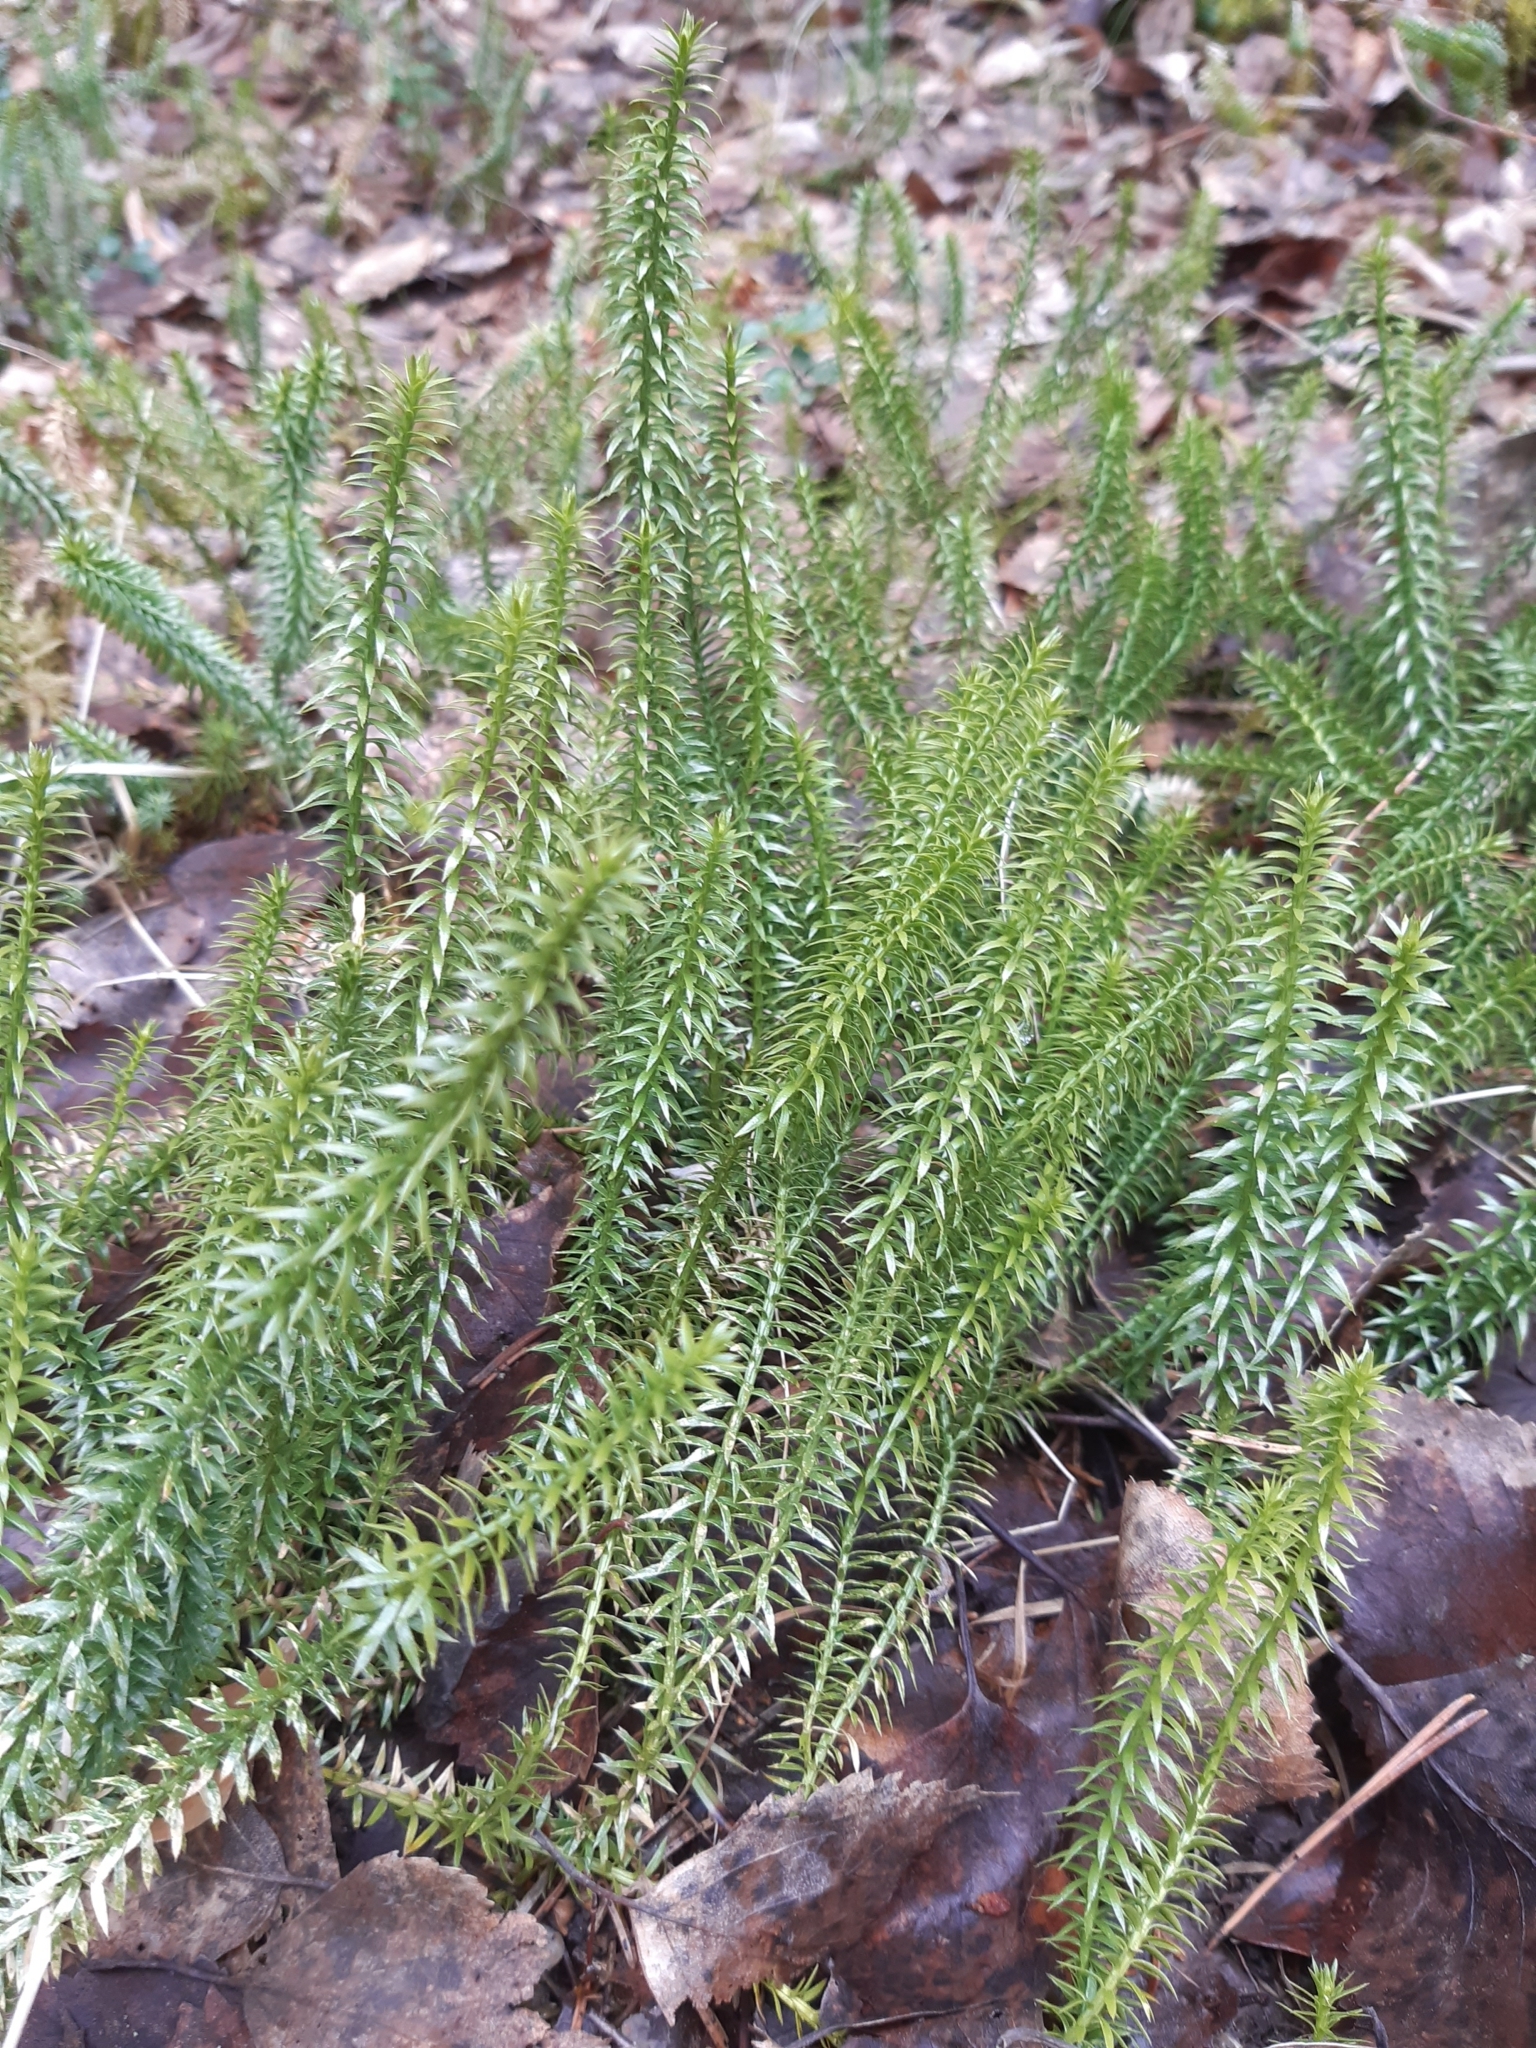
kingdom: Plantae
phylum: Tracheophyta
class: Lycopodiopsida
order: Lycopodiales
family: Lycopodiaceae
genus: Spinulum
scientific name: Spinulum annotinum
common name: Interrupted club-moss
